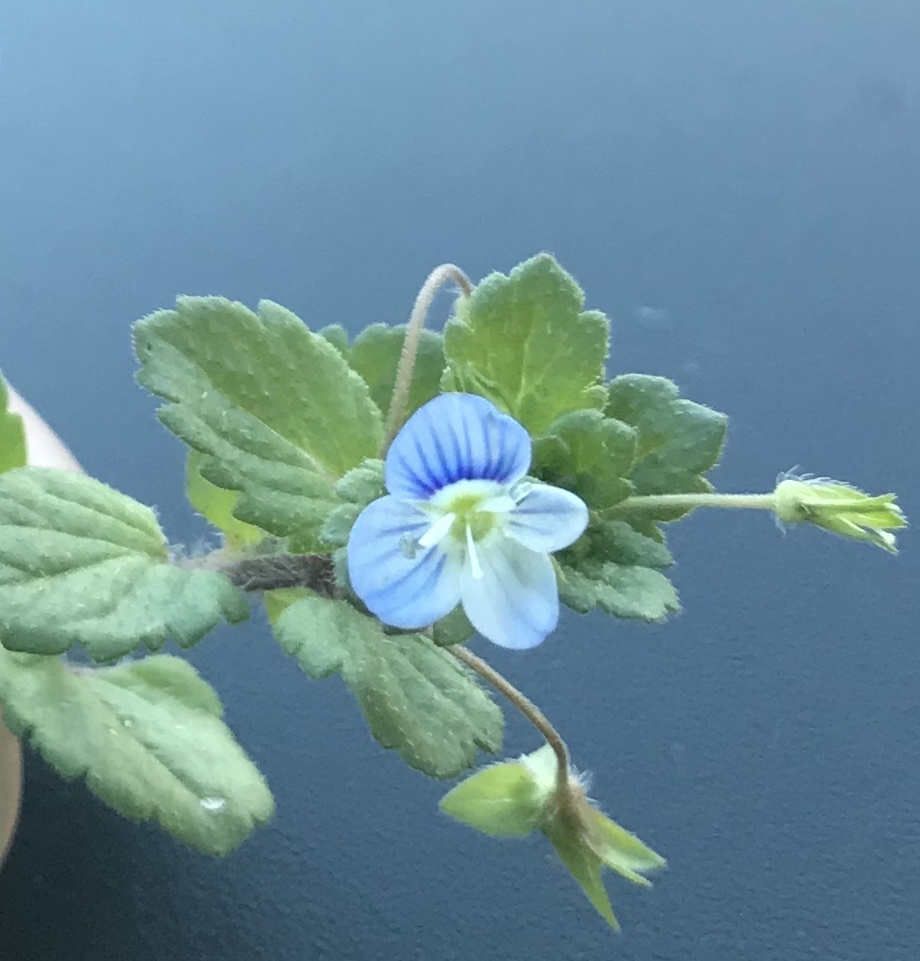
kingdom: Plantae
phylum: Tracheophyta
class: Magnoliopsida
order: Lamiales
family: Plantaginaceae
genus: Veronica
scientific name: Veronica persica
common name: Common field-speedwell
